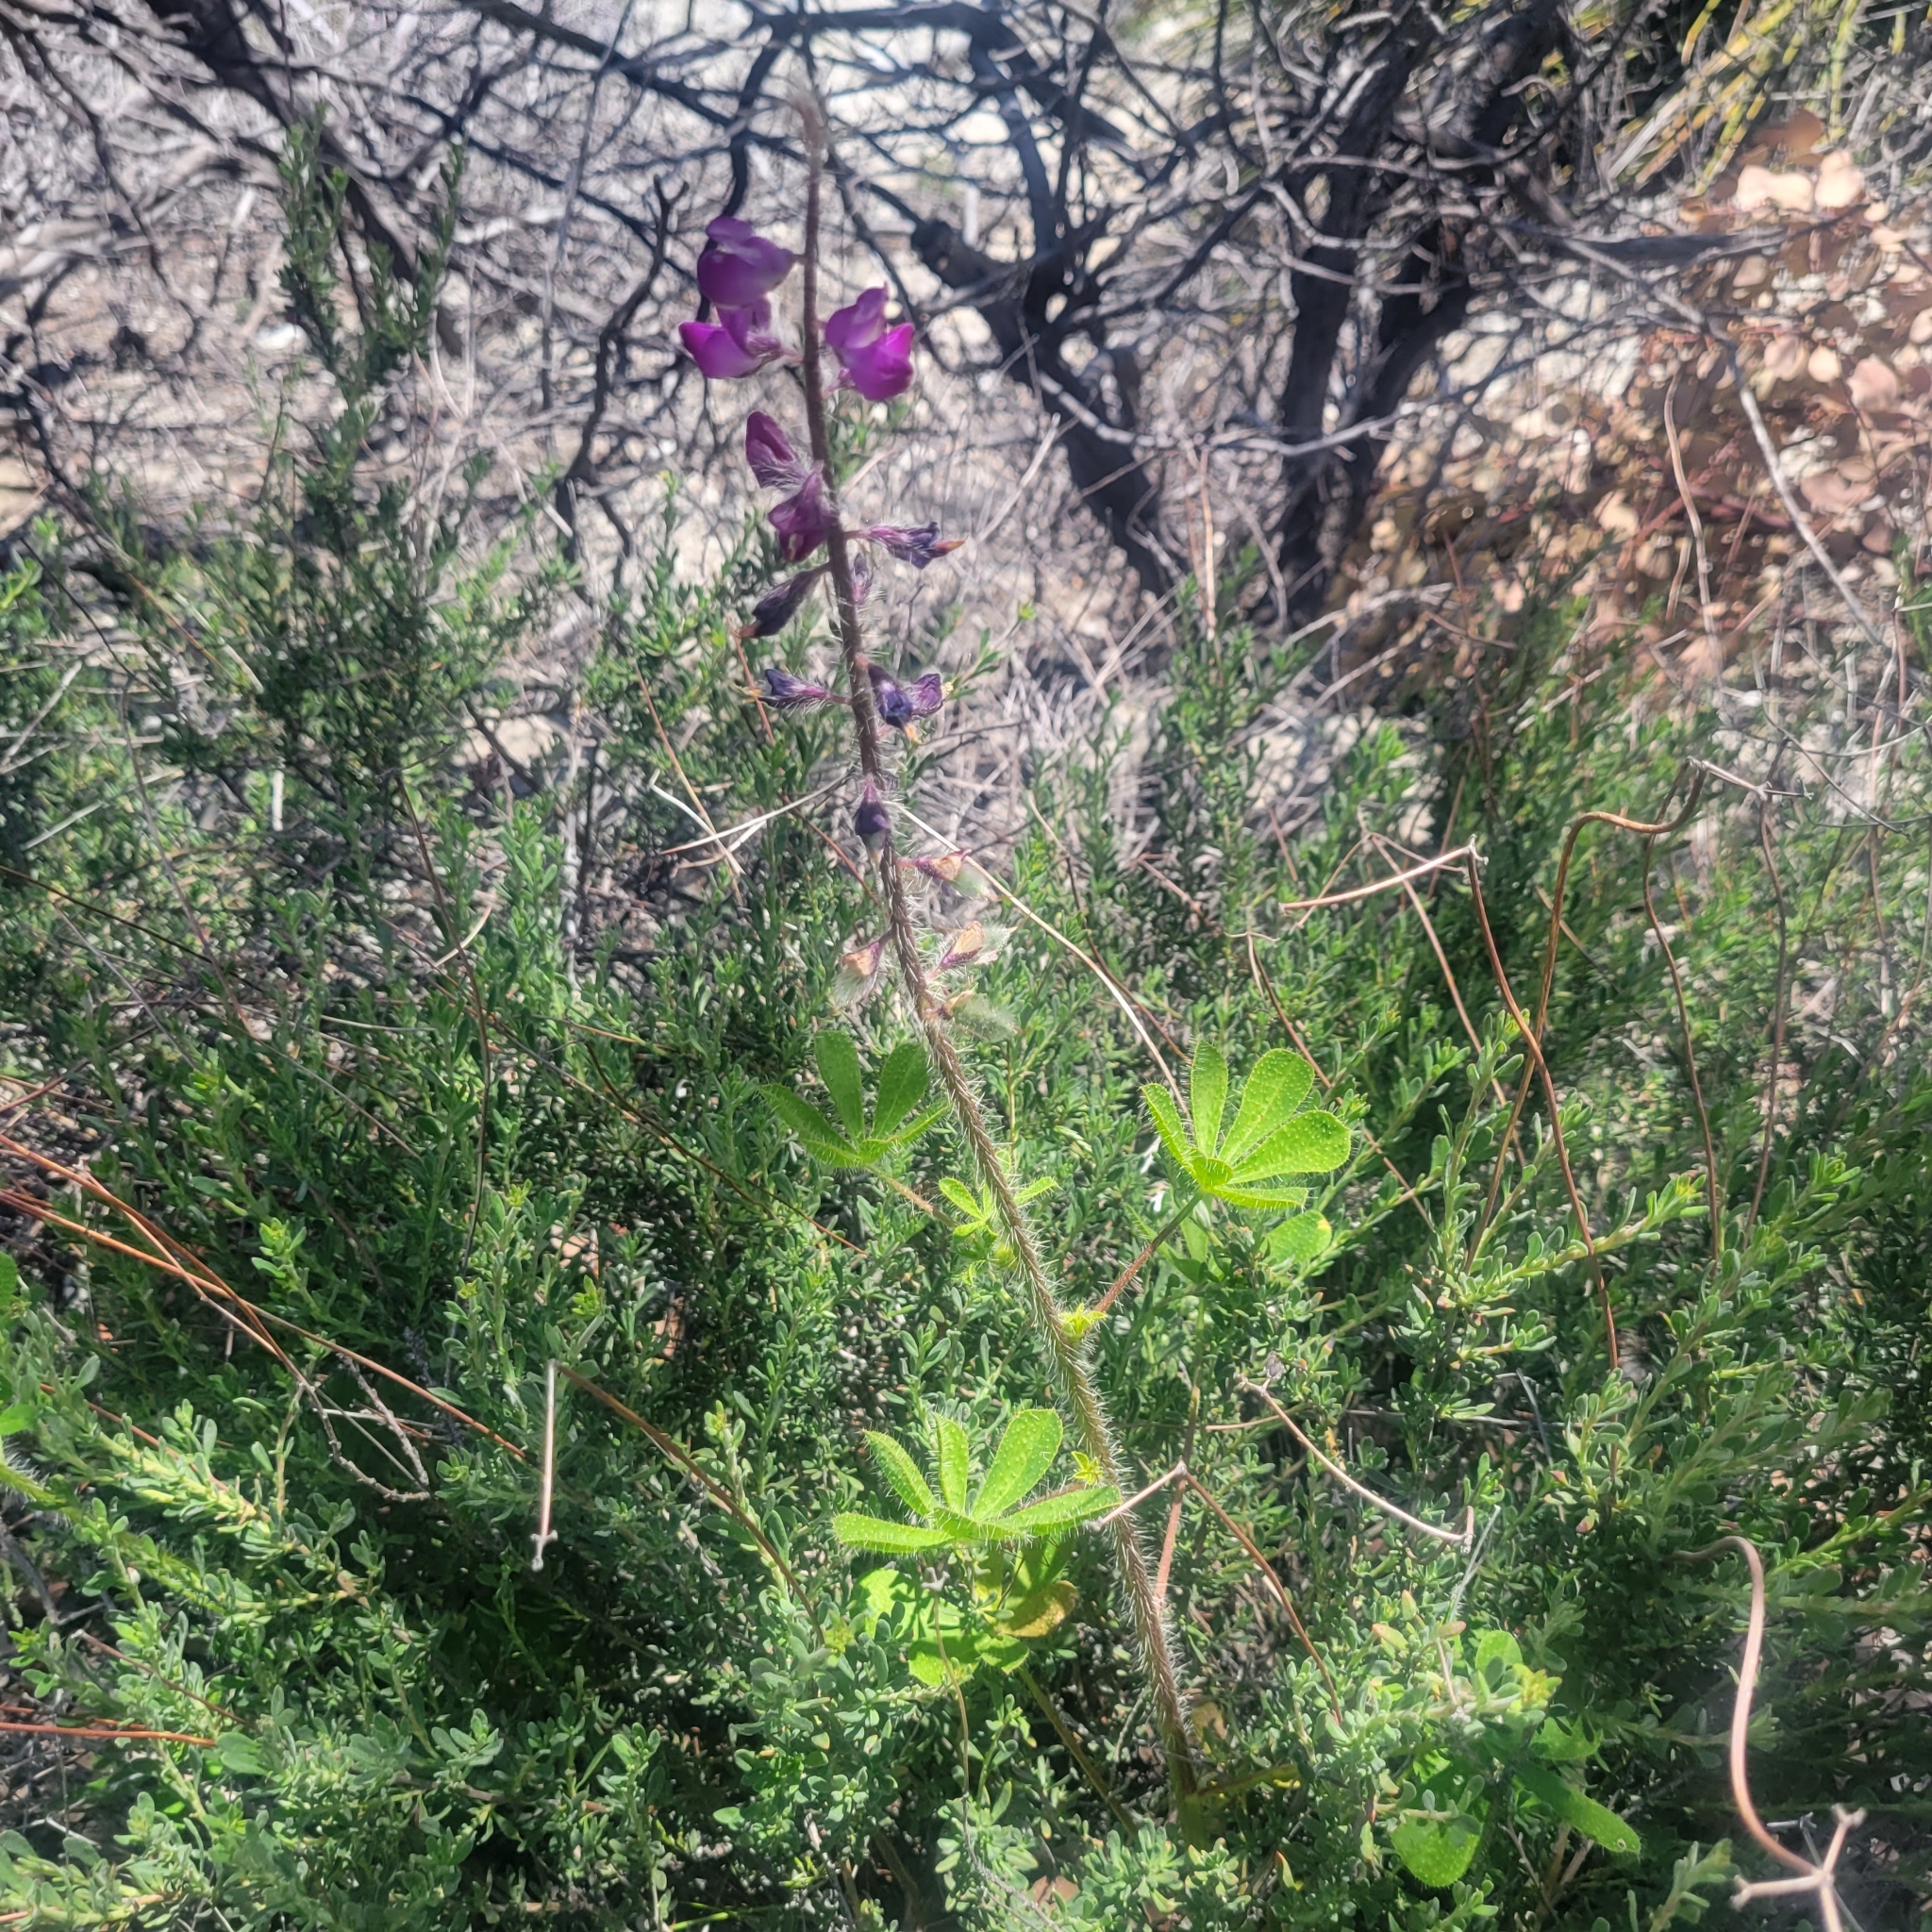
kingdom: Plantae
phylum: Tracheophyta
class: Magnoliopsida
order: Fabales
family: Fabaceae
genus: Lupinus
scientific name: Lupinus hirsutissimus
